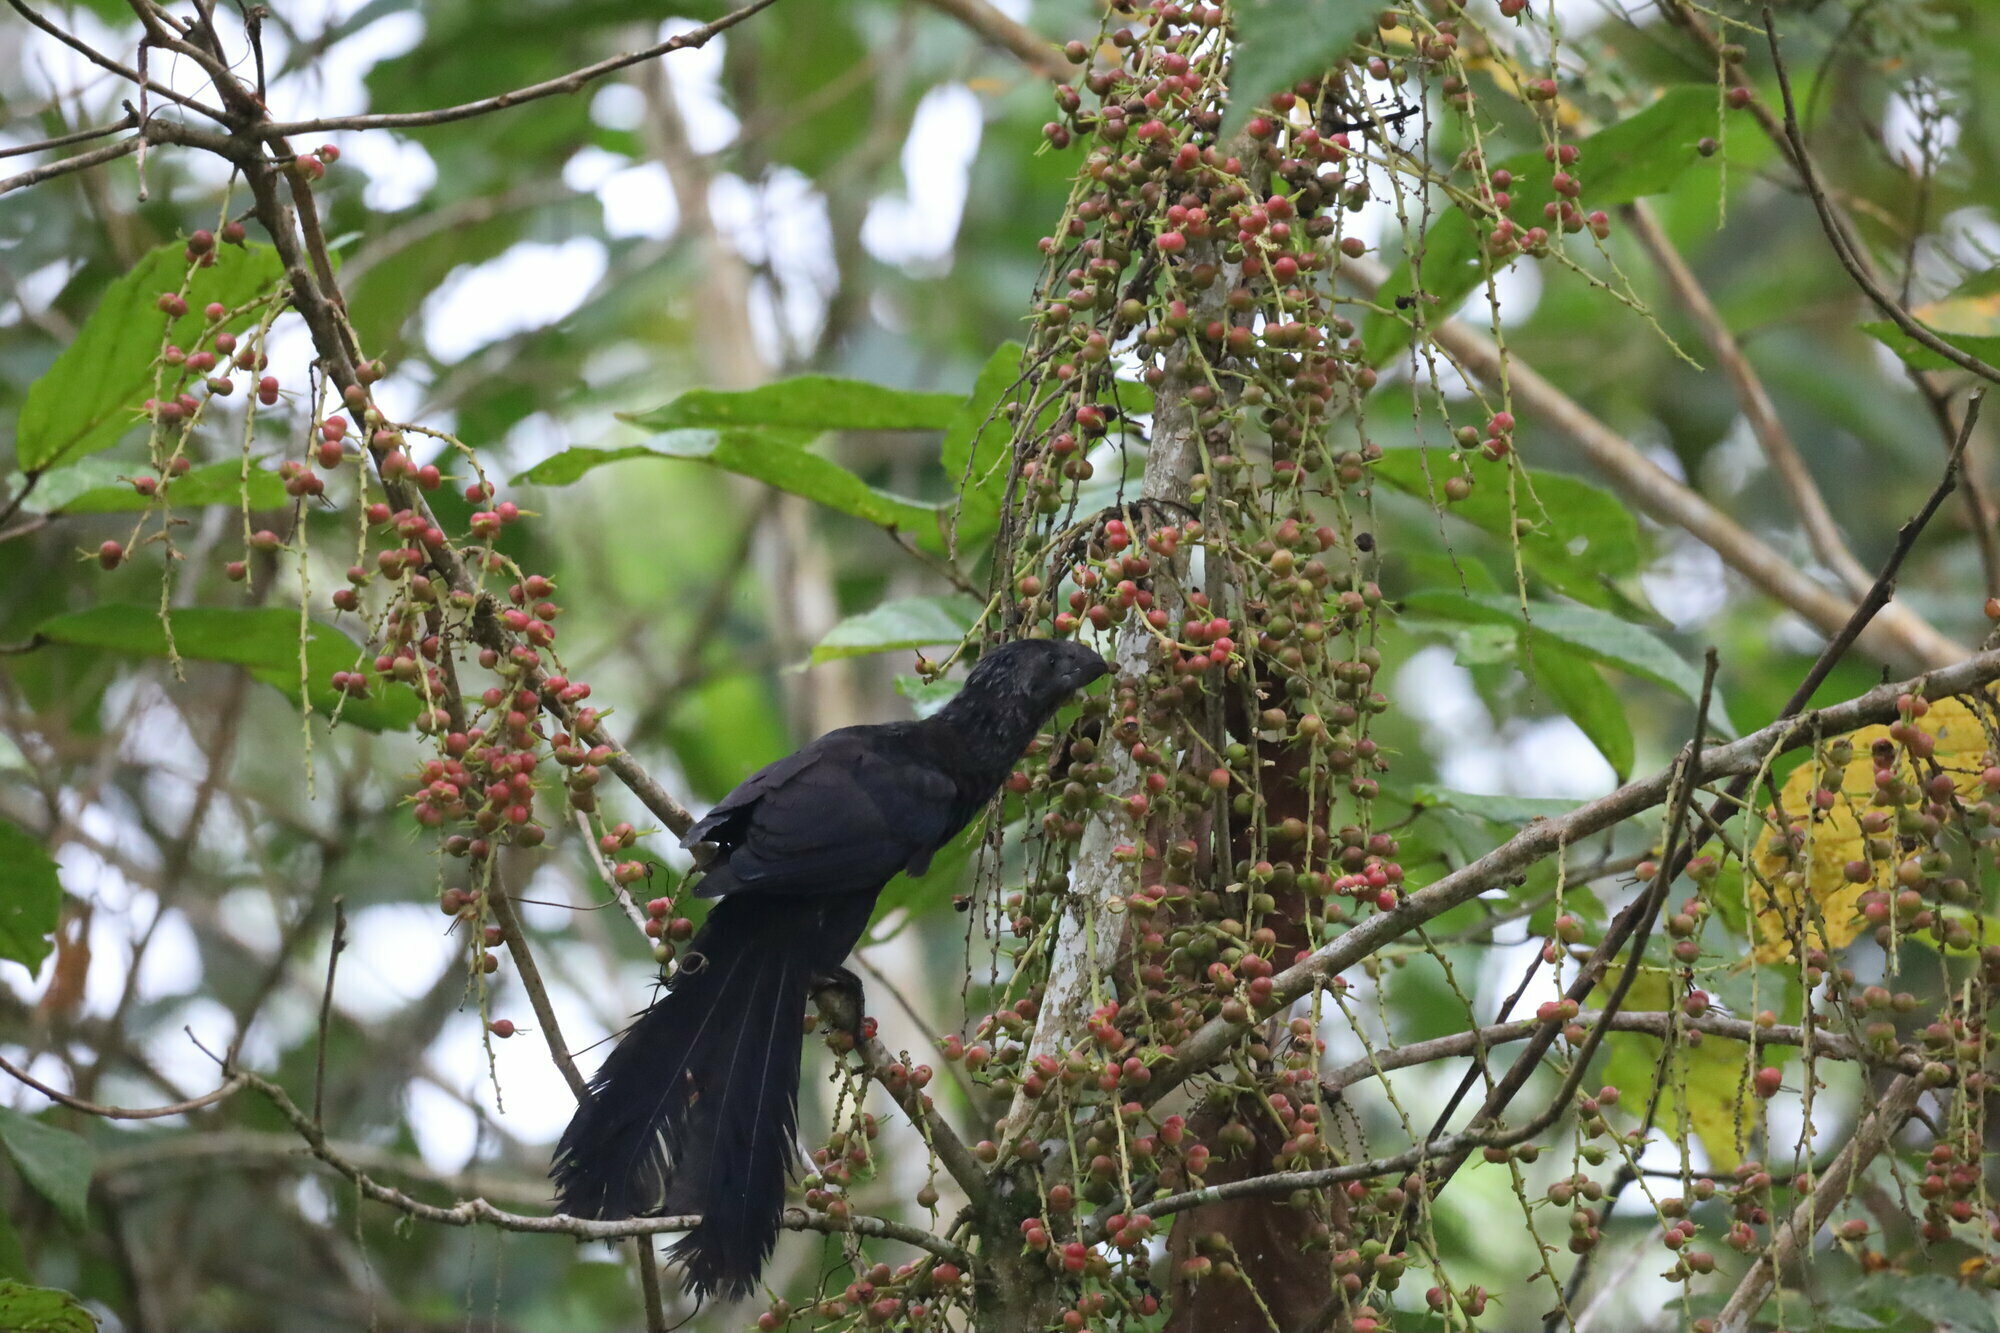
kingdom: Animalia
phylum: Chordata
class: Aves
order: Cuculiformes
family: Cuculidae
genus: Crotophaga
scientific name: Crotophaga ani
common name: Smooth-billed ani
